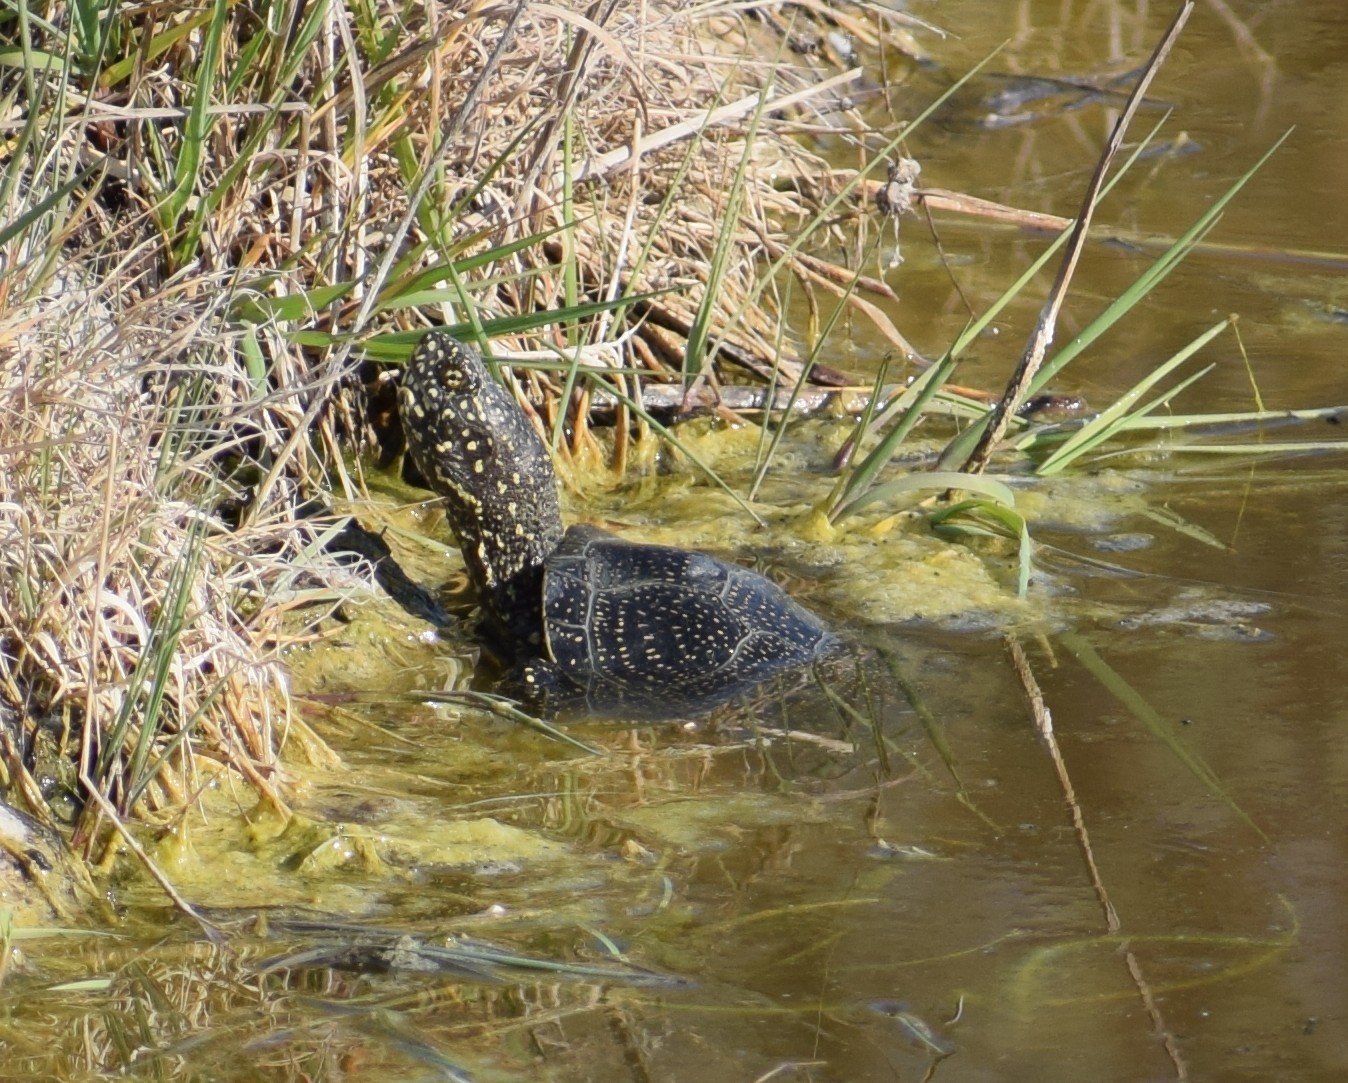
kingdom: Animalia
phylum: Chordata
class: Testudines
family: Emydidae
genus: Emys
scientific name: Emys orbicularis
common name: European pond turtle
